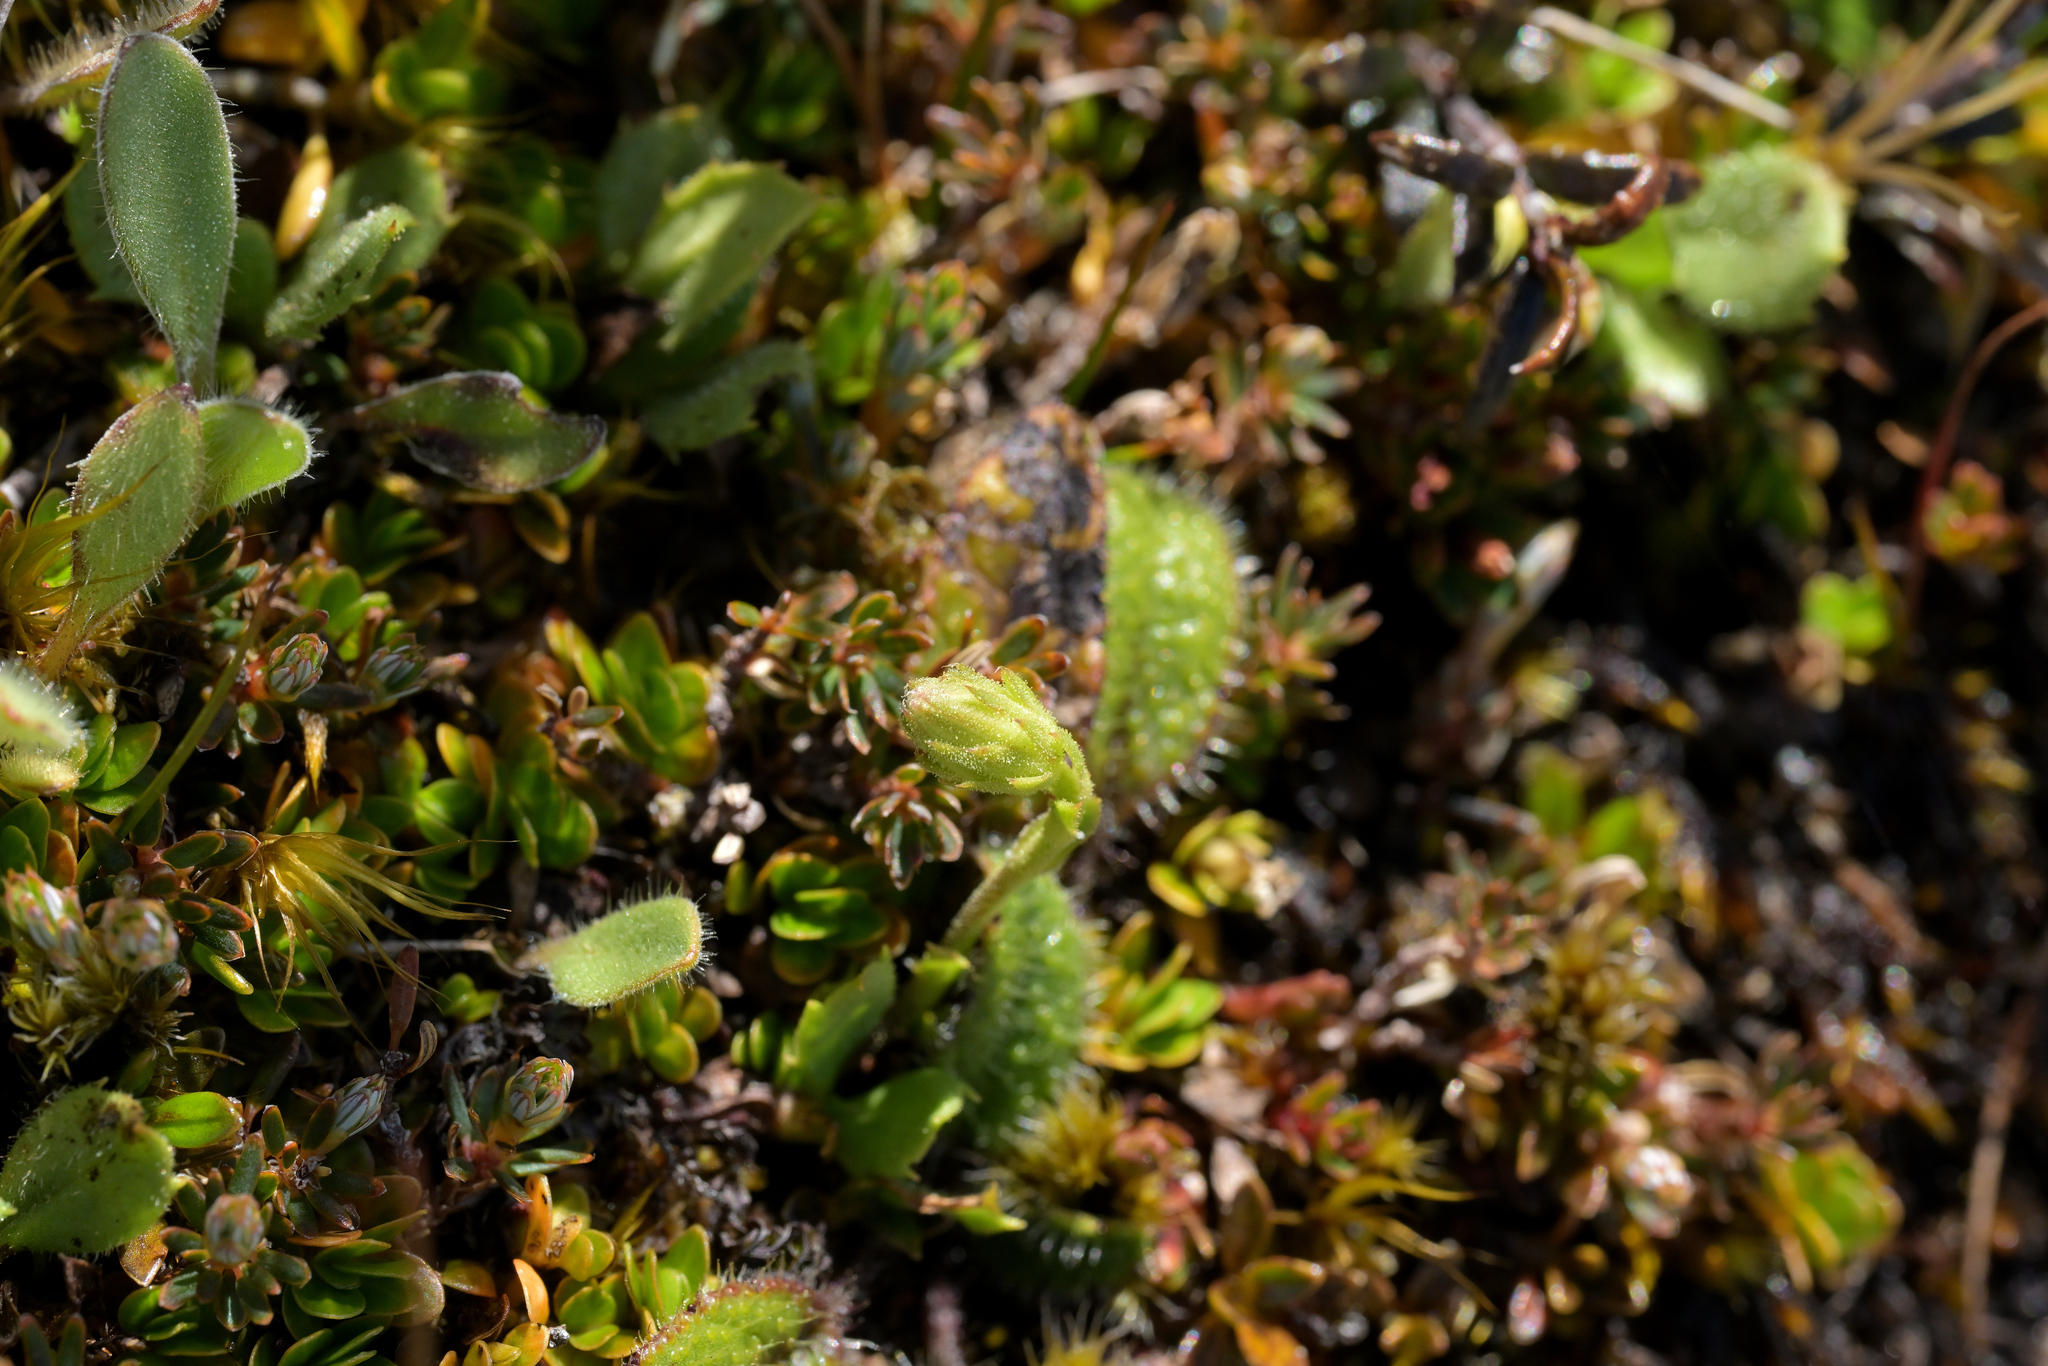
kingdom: Plantae
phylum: Tracheophyta
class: Magnoliopsida
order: Asterales
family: Asteraceae
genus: Celmisia
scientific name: Celmisia glandulosa
